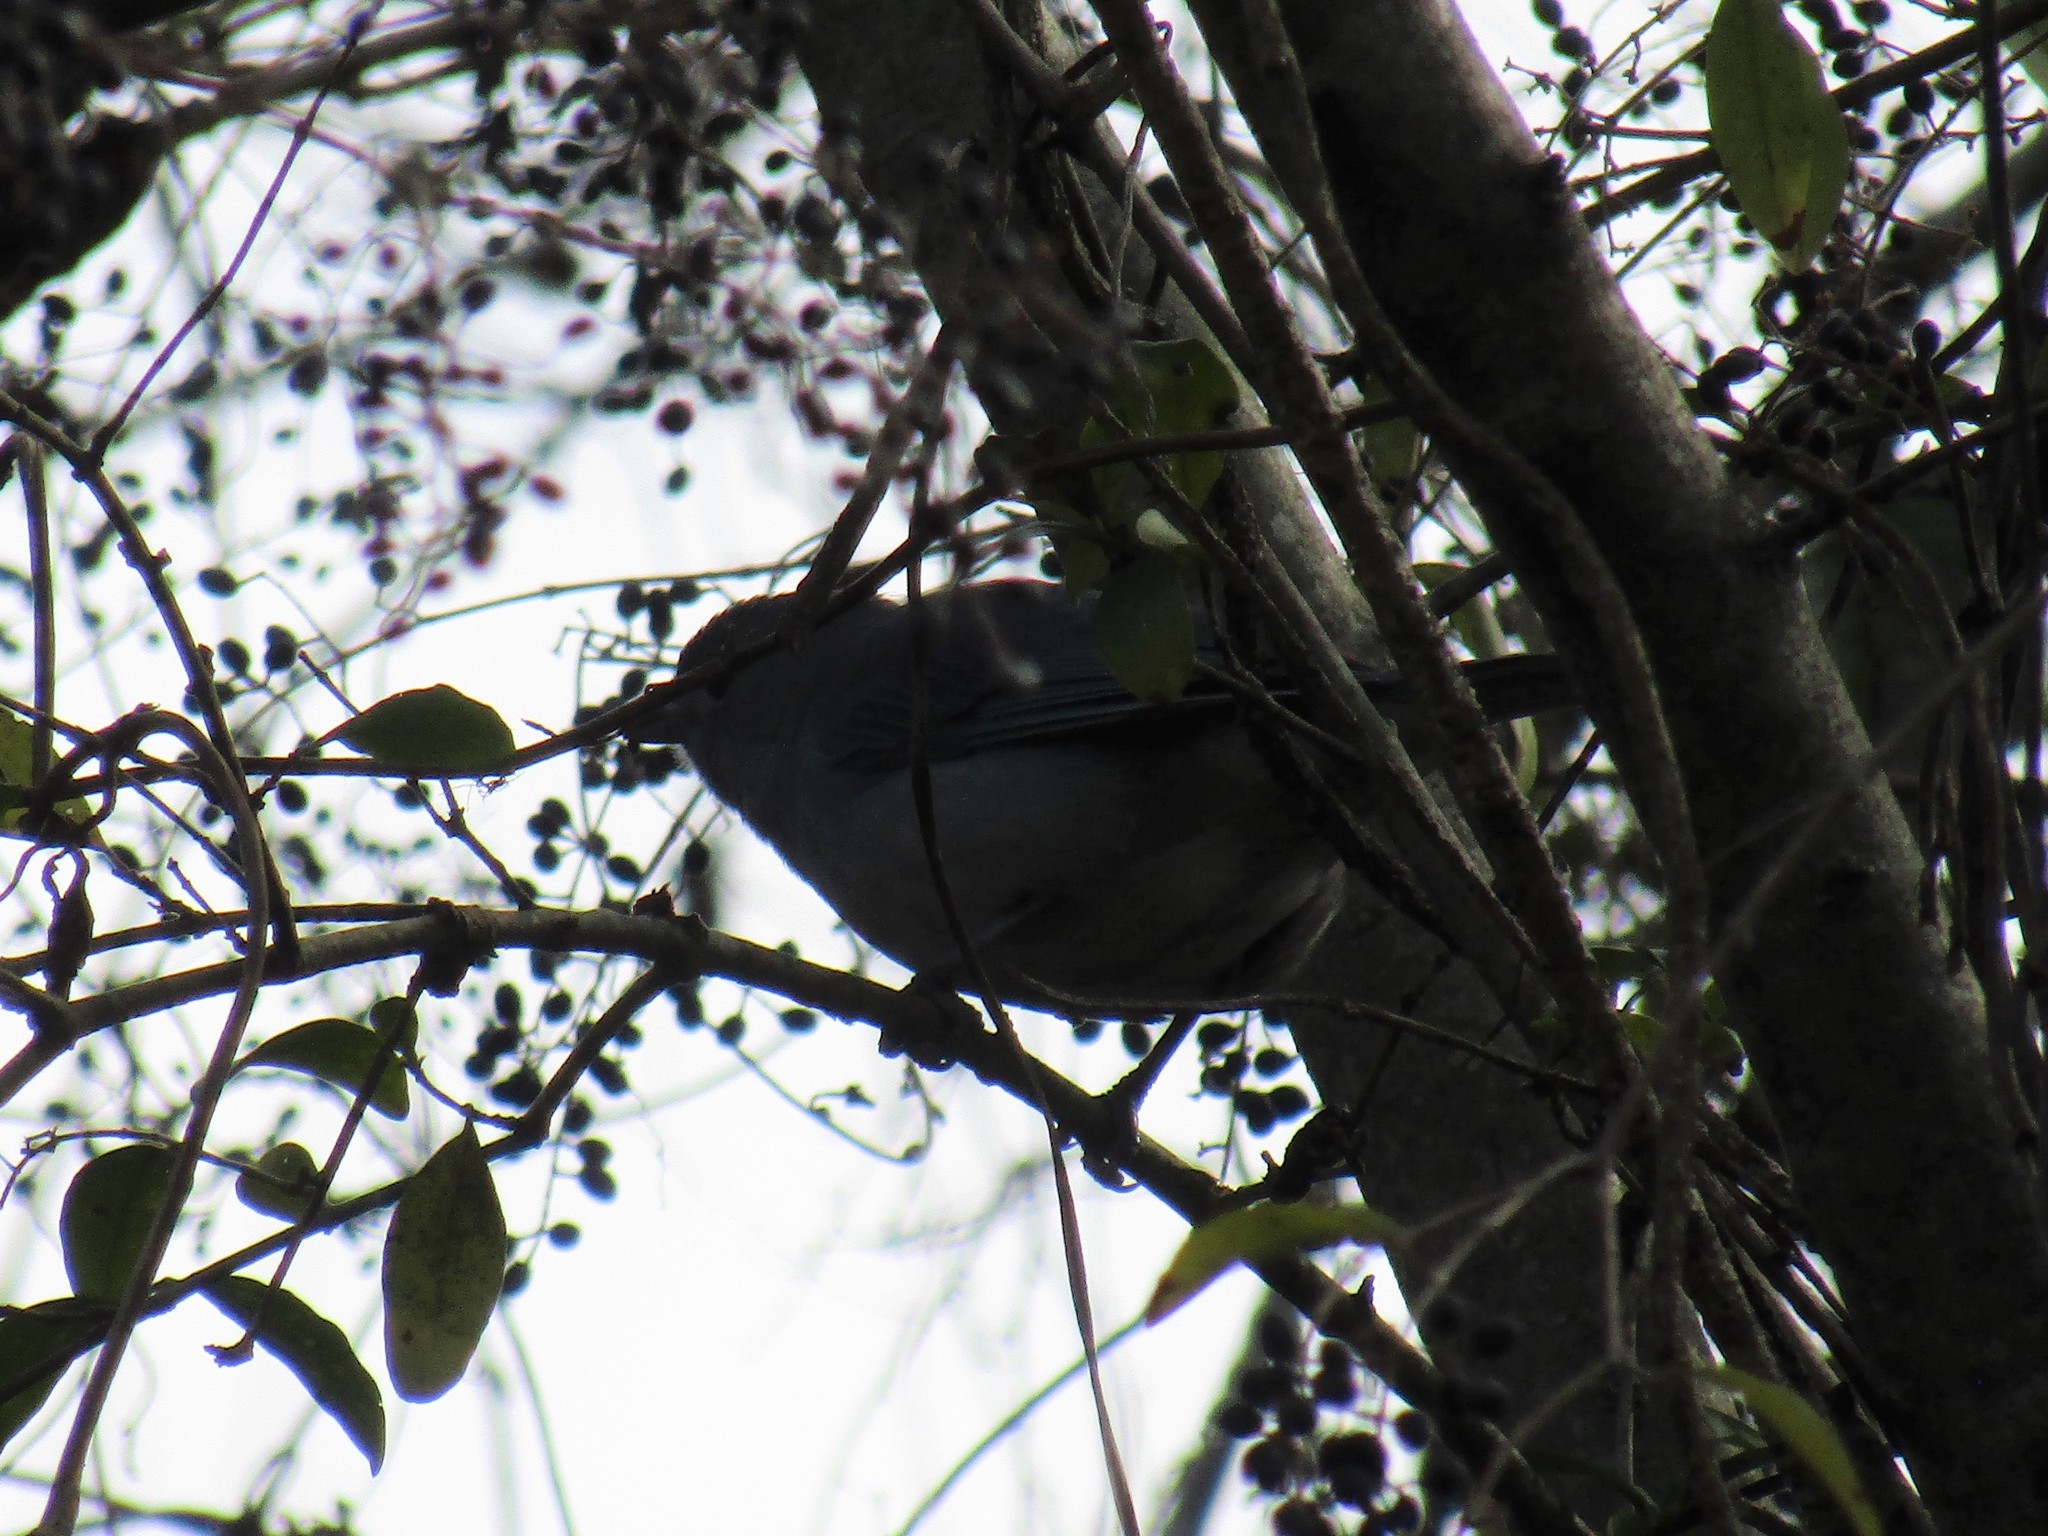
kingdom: Animalia
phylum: Chordata
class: Aves
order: Passeriformes
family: Thraupidae
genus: Thraupis
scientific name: Thraupis sayaca
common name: Sayaca tanager
